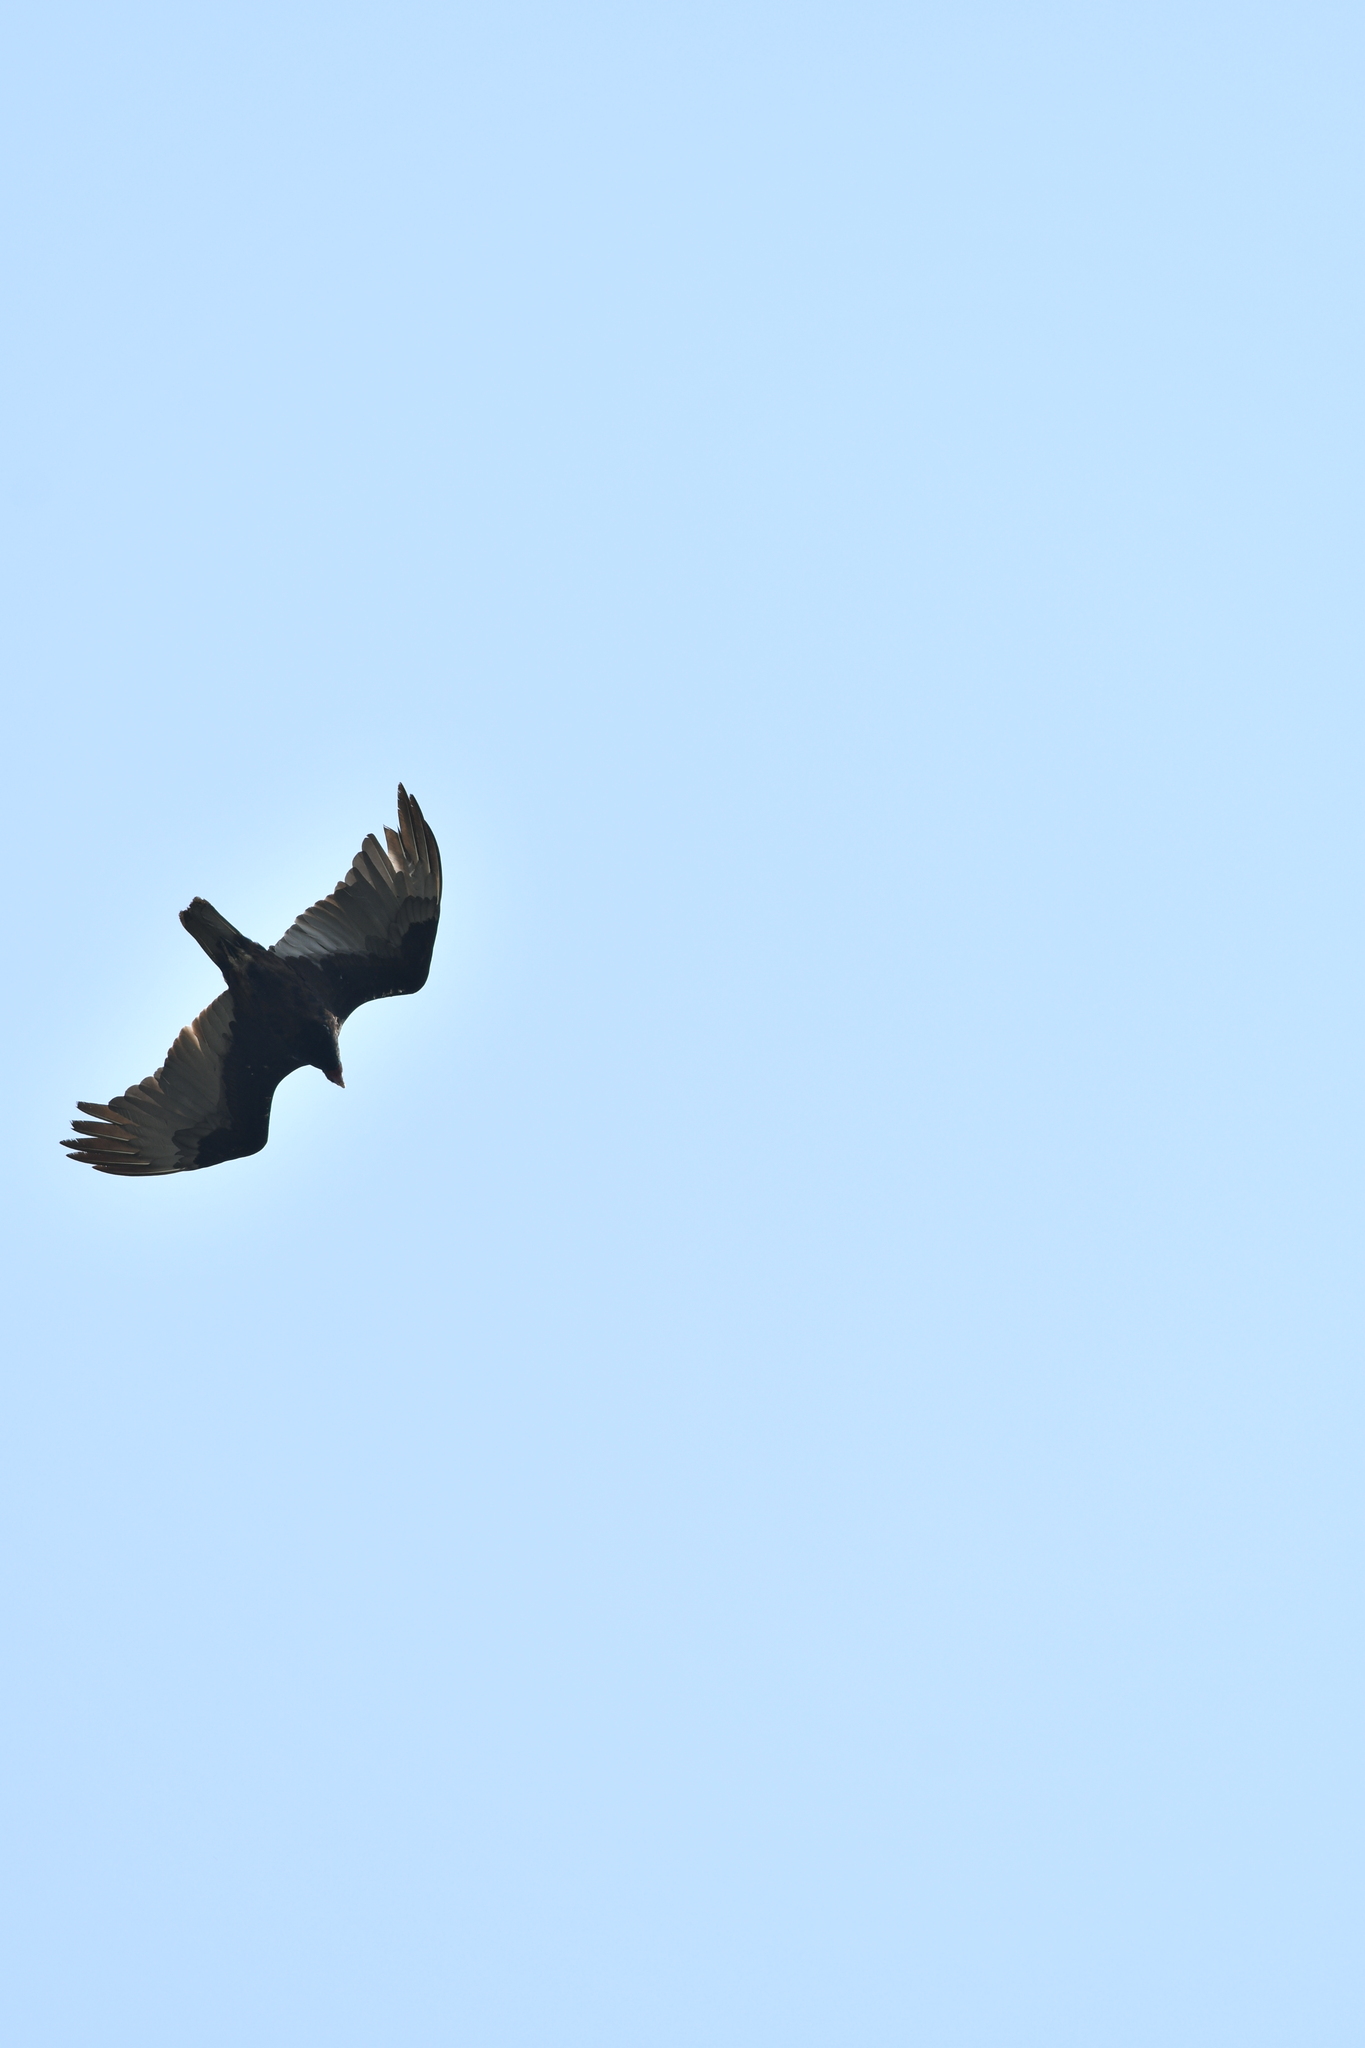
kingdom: Animalia
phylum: Chordata
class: Aves
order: Accipitriformes
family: Cathartidae
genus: Cathartes
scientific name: Cathartes aura
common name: Turkey vulture
